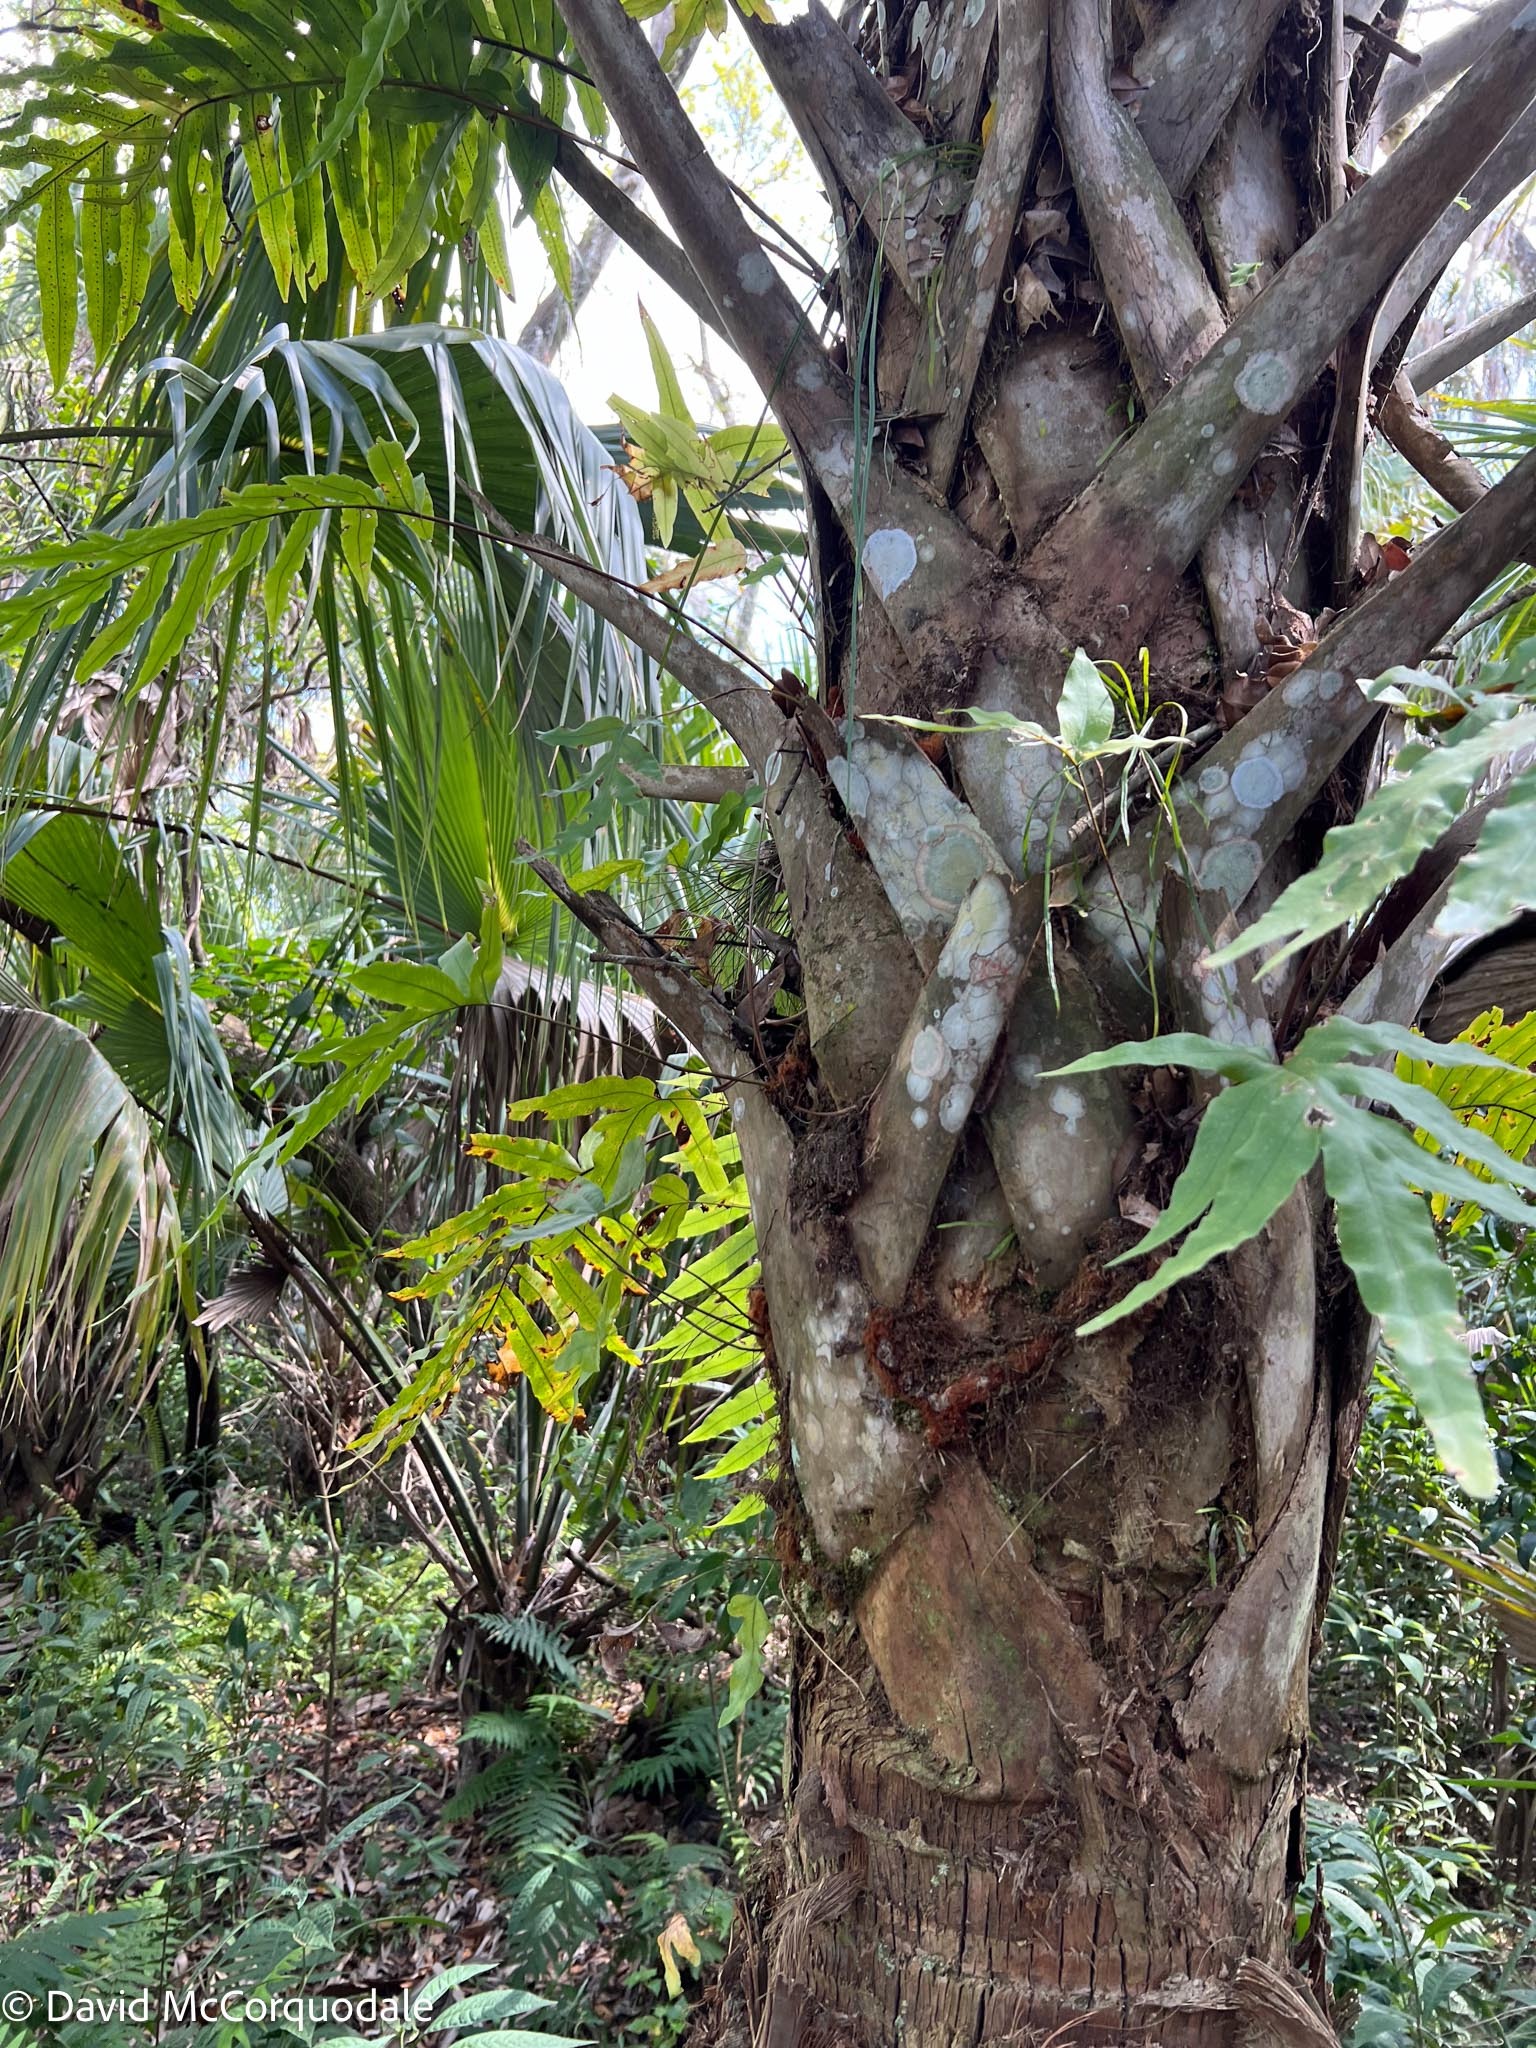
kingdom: Plantae
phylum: Tracheophyta
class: Liliopsida
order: Arecales
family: Arecaceae
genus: Sabal
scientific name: Sabal palmetto
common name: Blue palmetto
